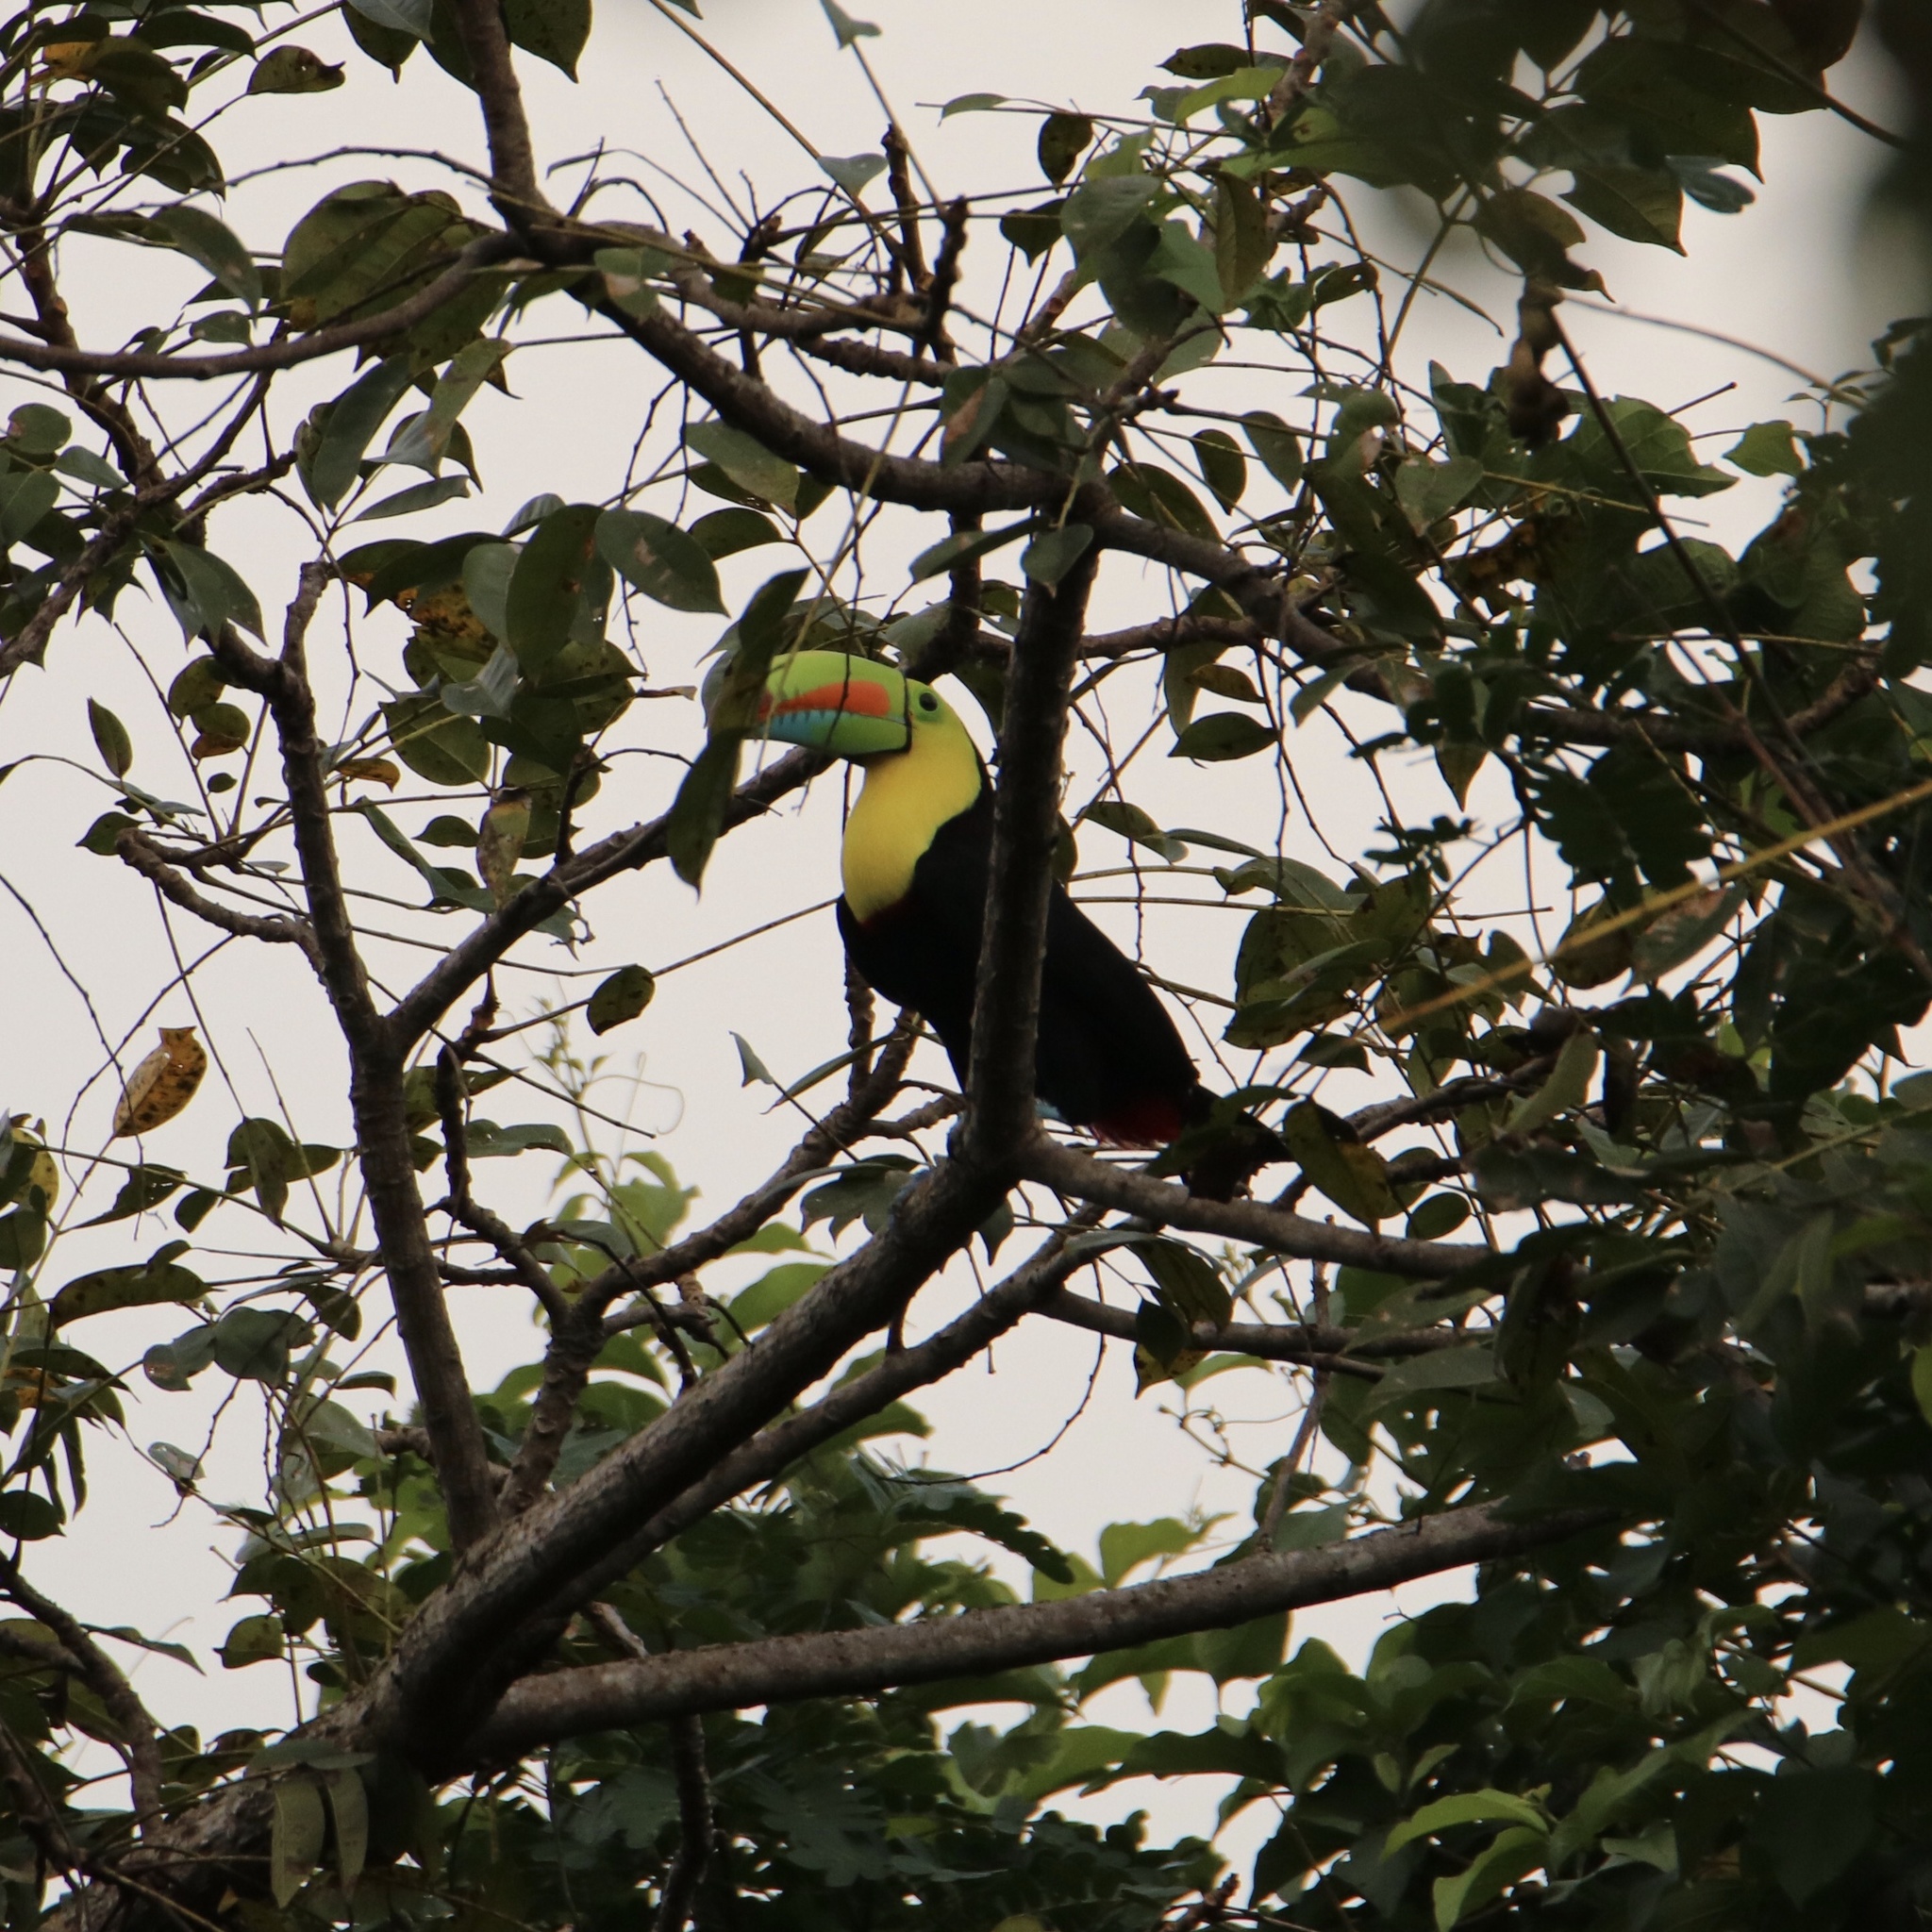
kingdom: Animalia
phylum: Chordata
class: Aves
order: Piciformes
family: Ramphastidae
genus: Ramphastos
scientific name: Ramphastos sulfuratus
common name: Keel-billed toucan
